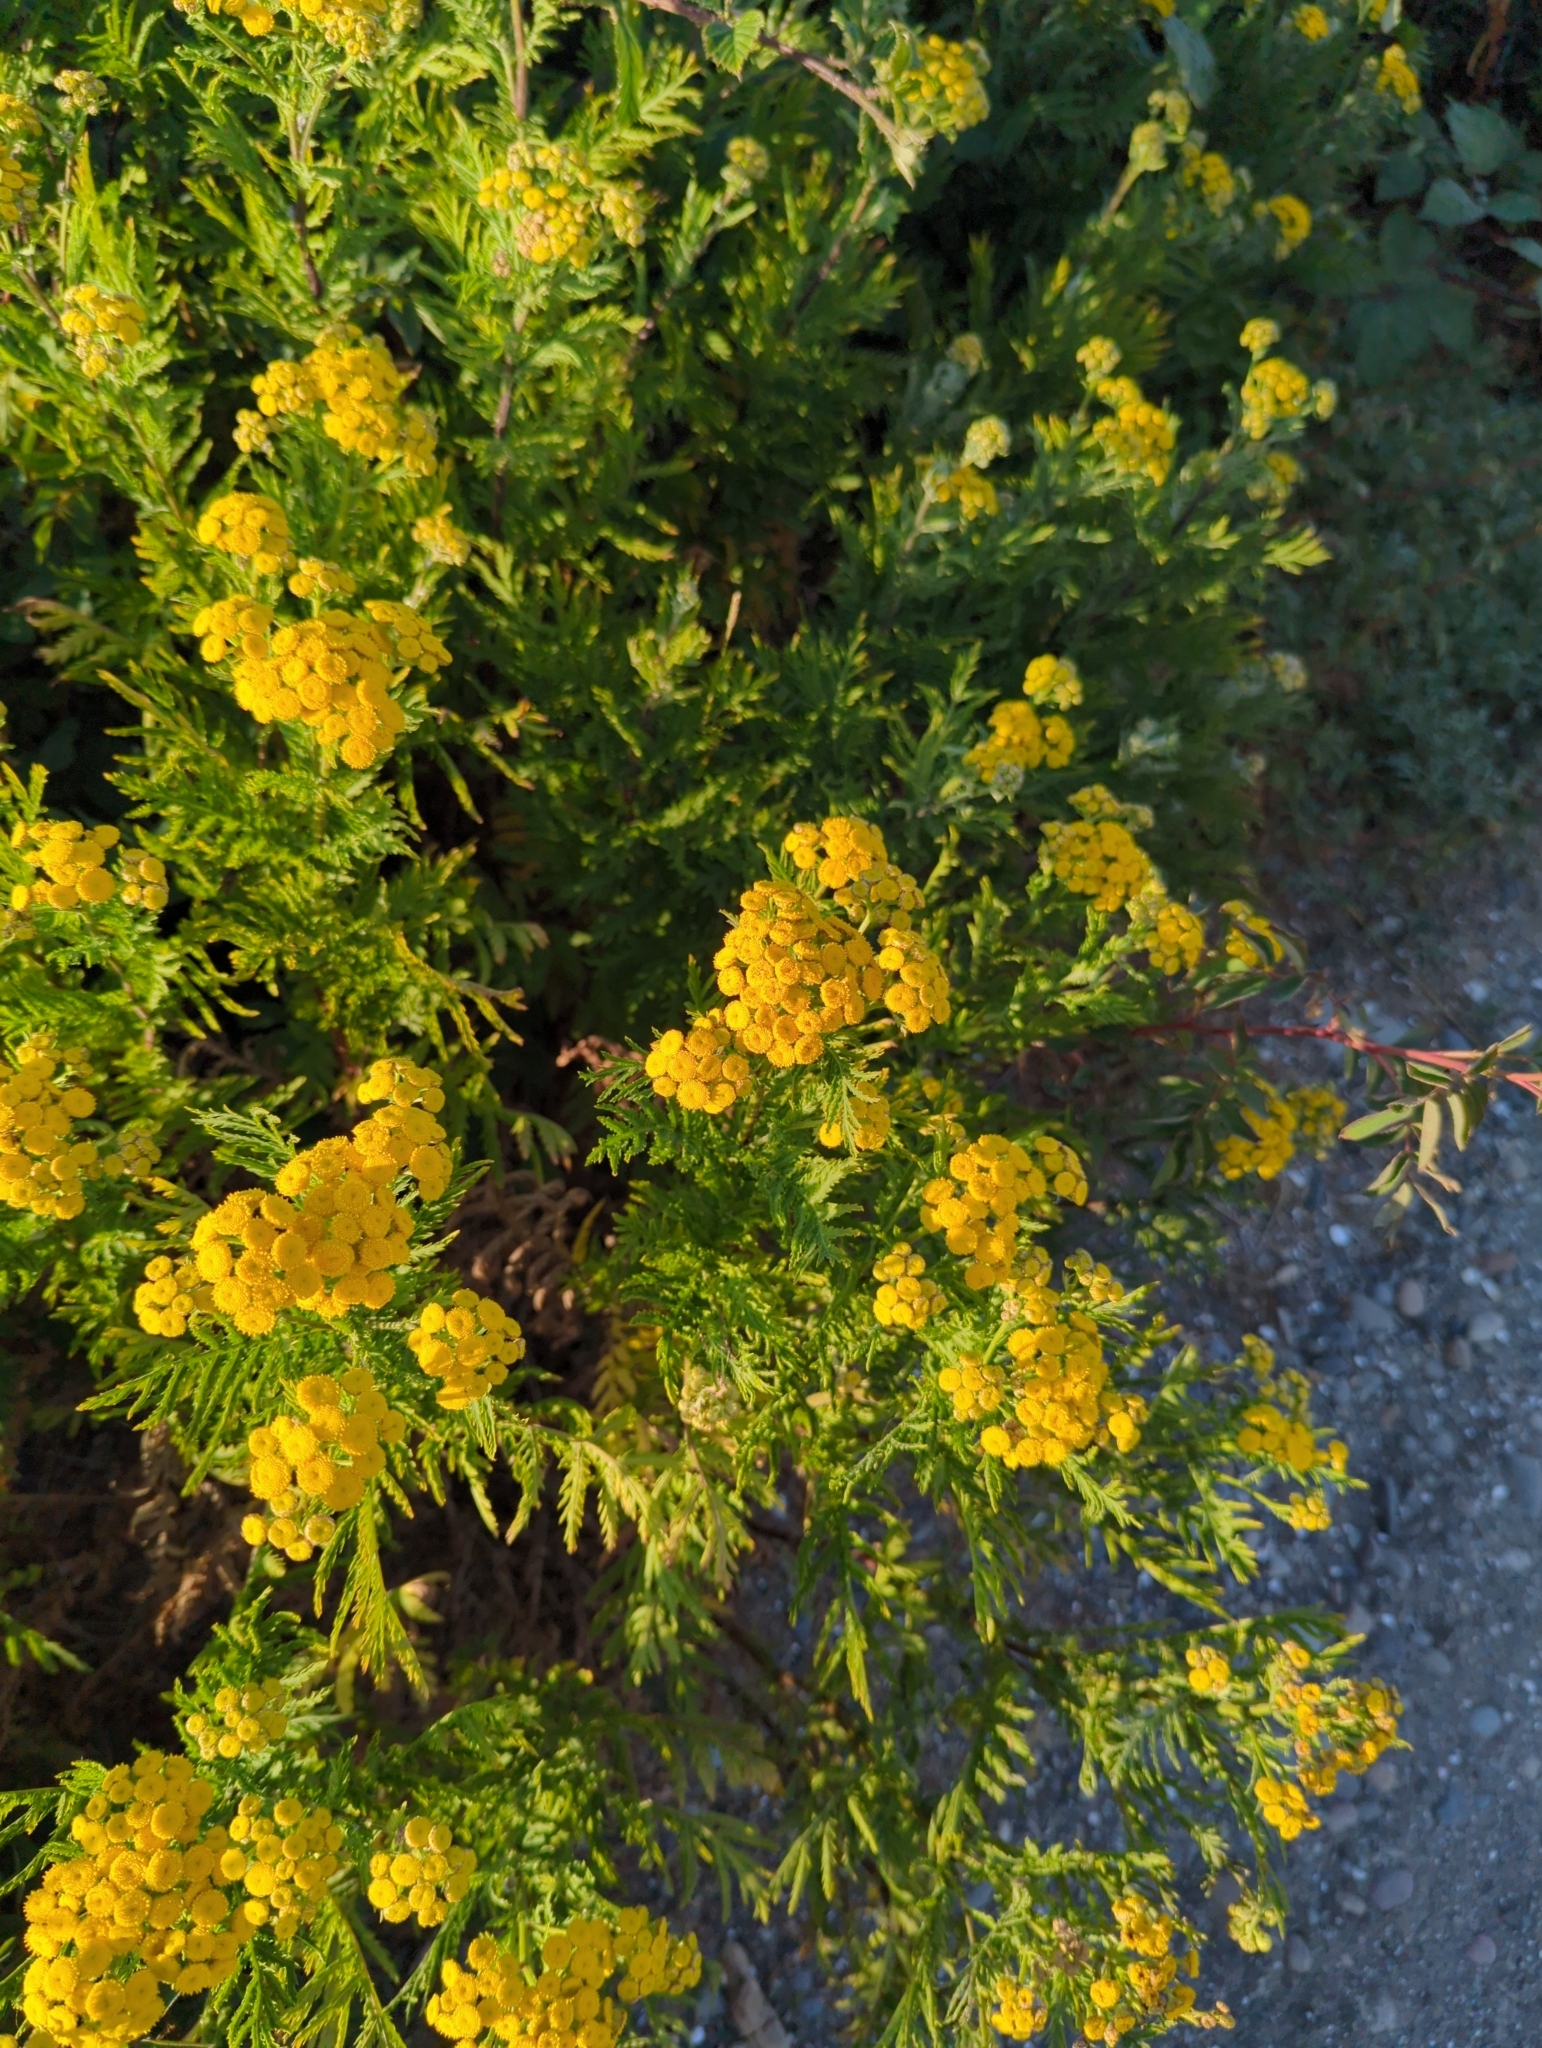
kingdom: Plantae
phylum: Tracheophyta
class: Magnoliopsida
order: Asterales
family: Asteraceae
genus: Tanacetum
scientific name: Tanacetum vulgare
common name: Common tansy
